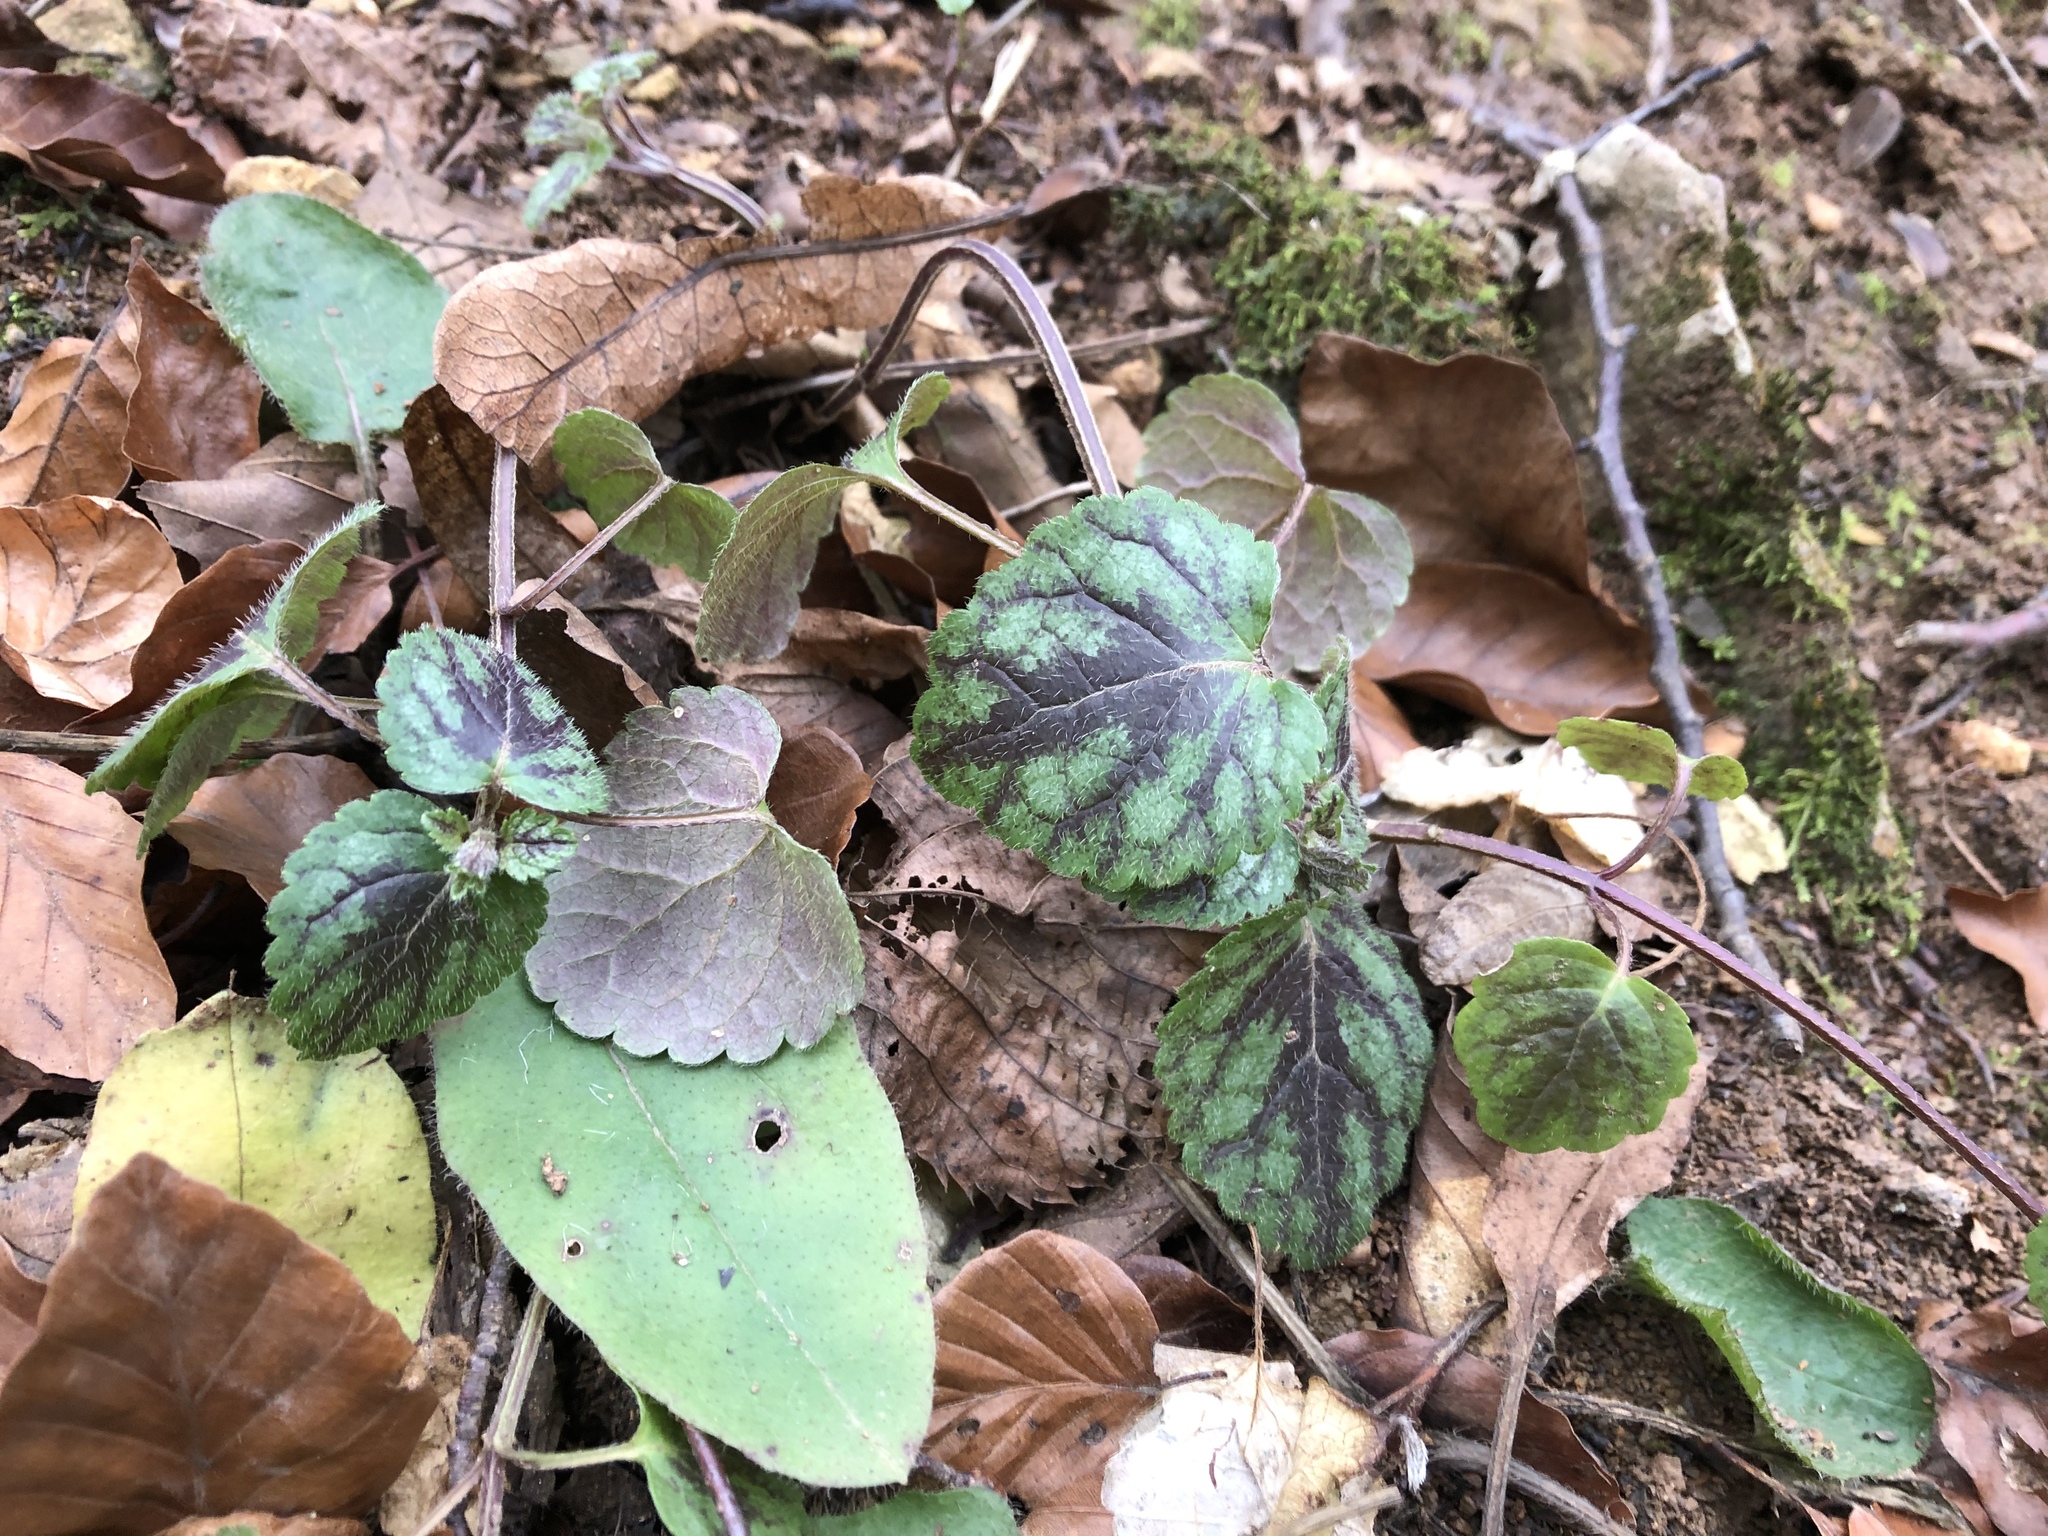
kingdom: Plantae
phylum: Tracheophyta
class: Magnoliopsida
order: Lamiales
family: Lamiaceae
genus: Lamium
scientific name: Lamium galeobdolon
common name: Yellow archangel
